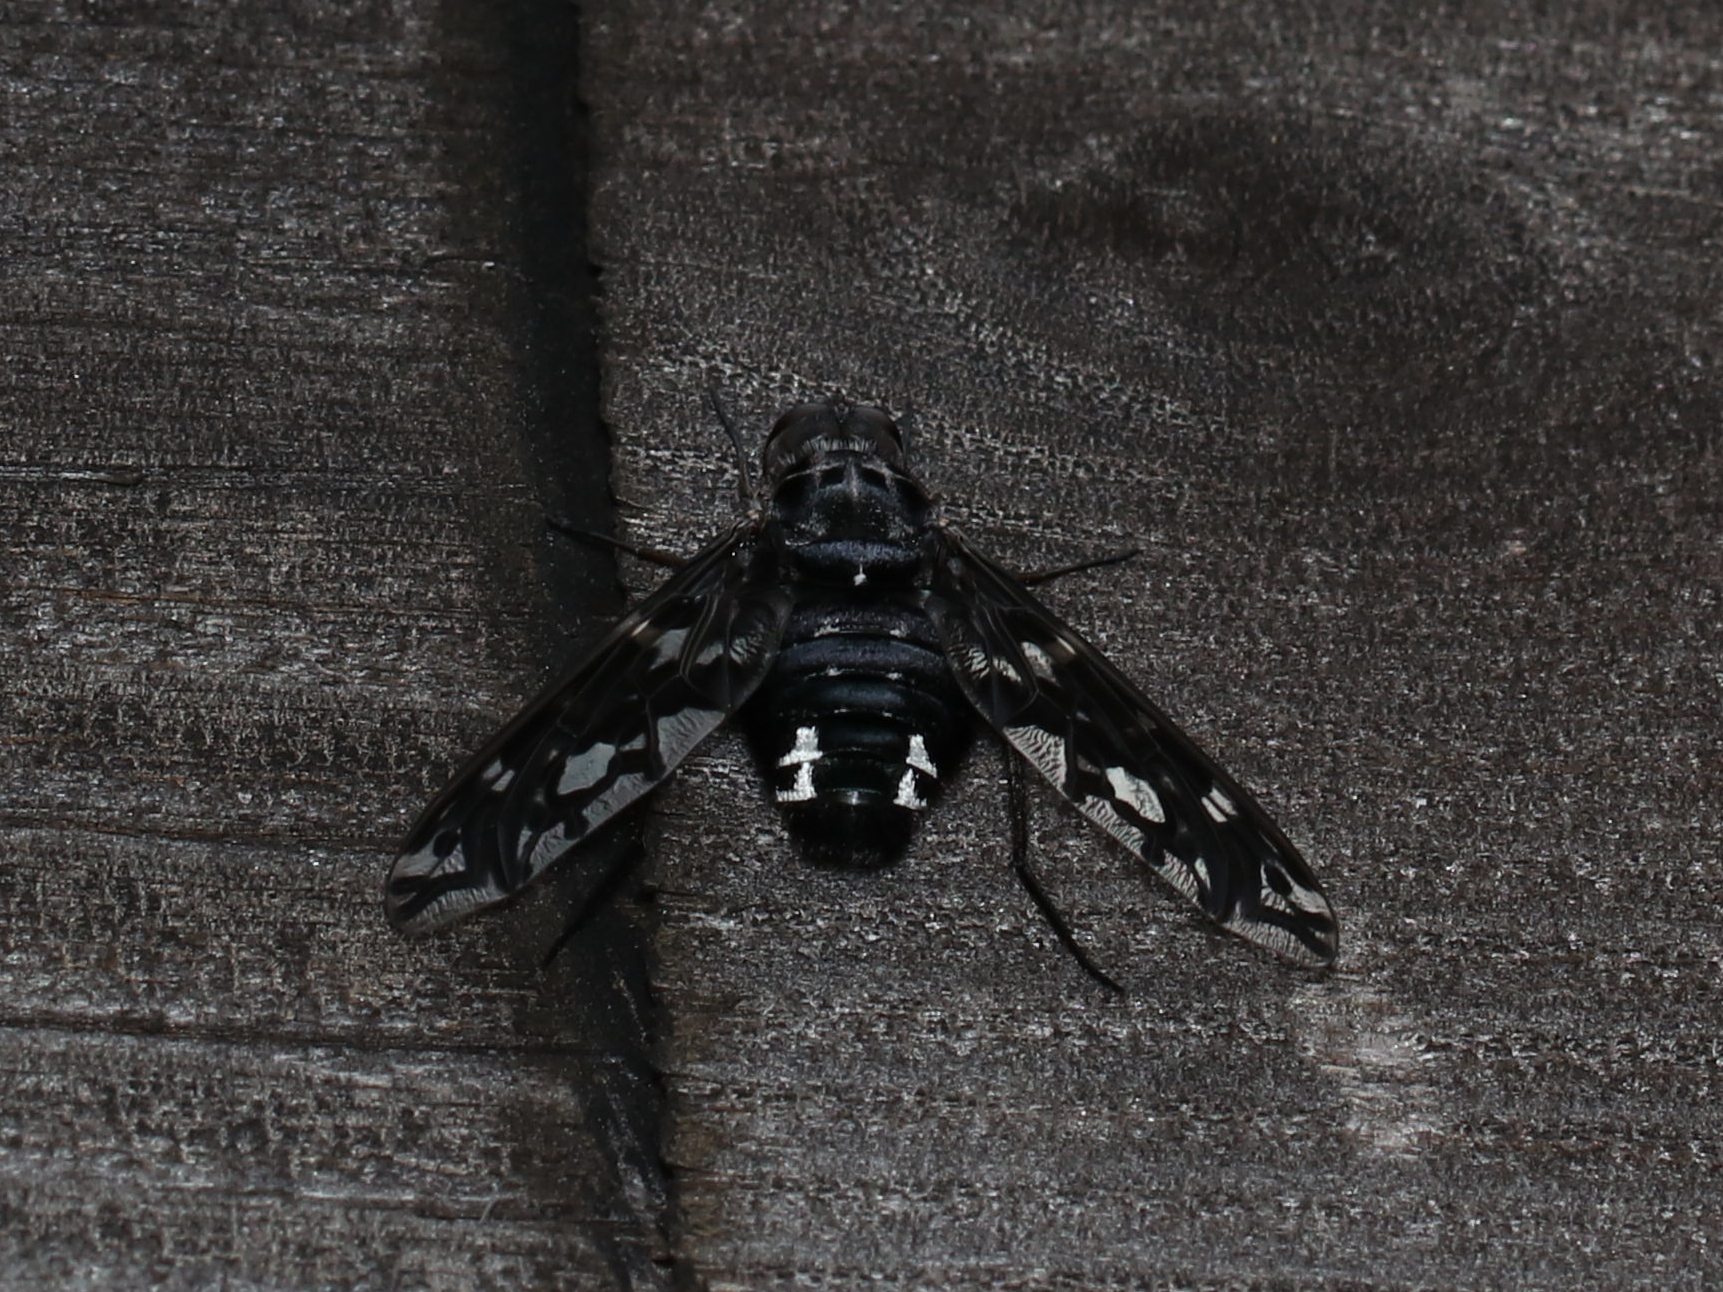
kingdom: Animalia
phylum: Arthropoda
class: Insecta
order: Diptera
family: Bombyliidae
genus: Xenox
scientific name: Xenox tigrinus
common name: Tiger bee fly
